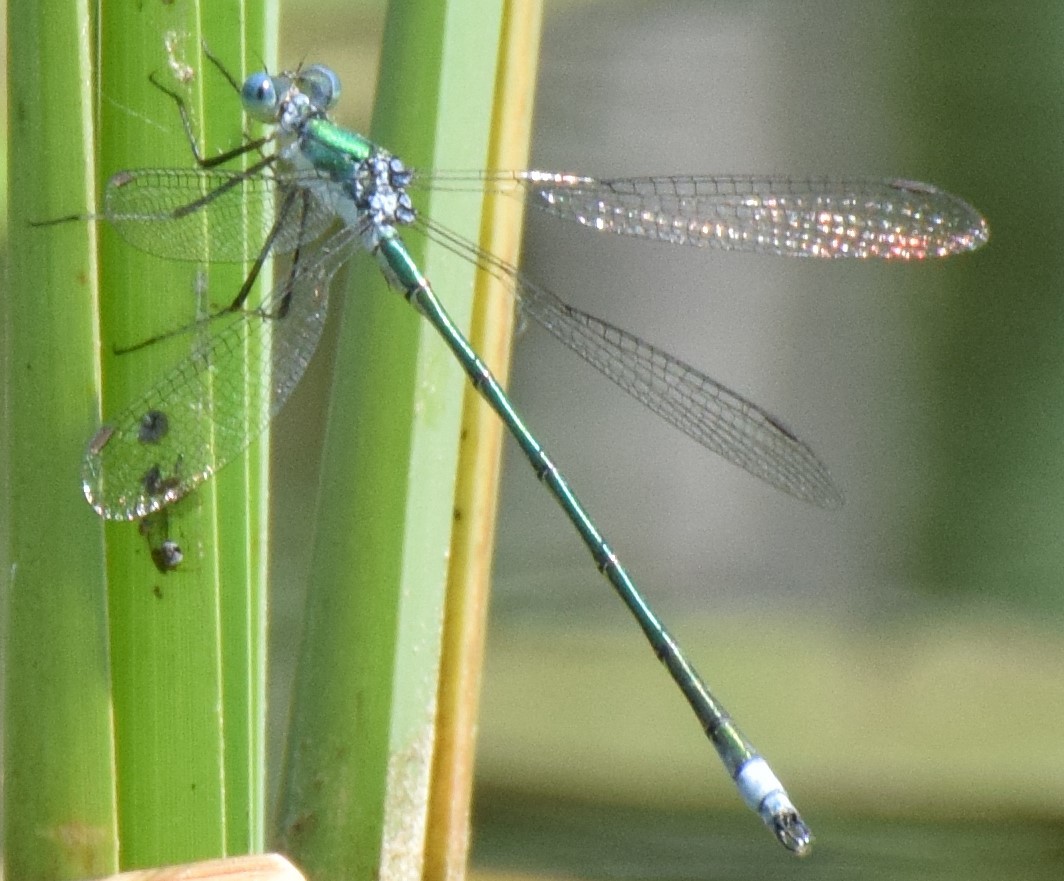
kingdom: Animalia
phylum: Arthropoda
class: Insecta
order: Odonata
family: Lestidae
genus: Lestes
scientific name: Lestes inaequalis
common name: Elegant spreadwing
